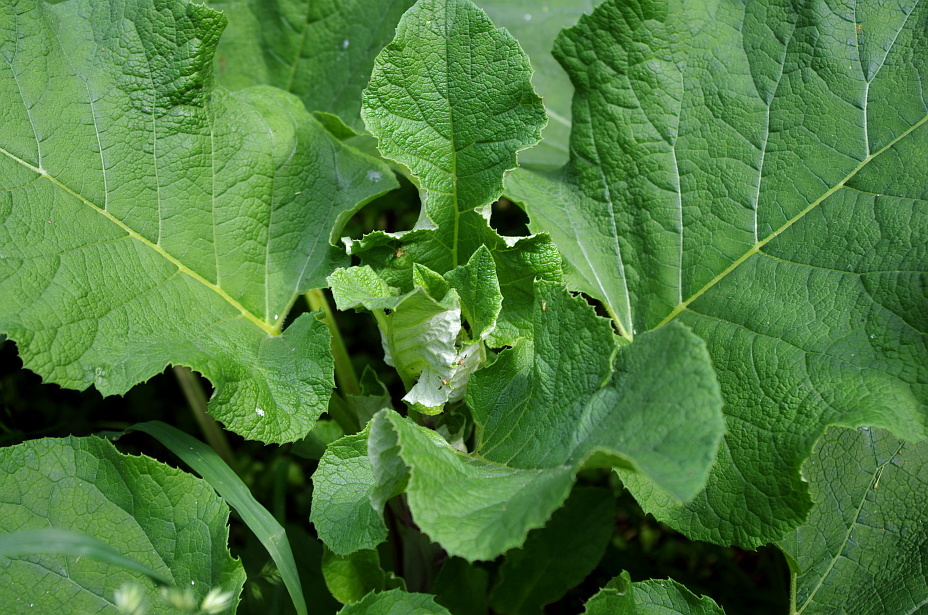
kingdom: Plantae
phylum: Tracheophyta
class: Magnoliopsida
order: Asterales
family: Asteraceae
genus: Arctium
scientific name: Arctium tomentosum
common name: Woolly burdock
